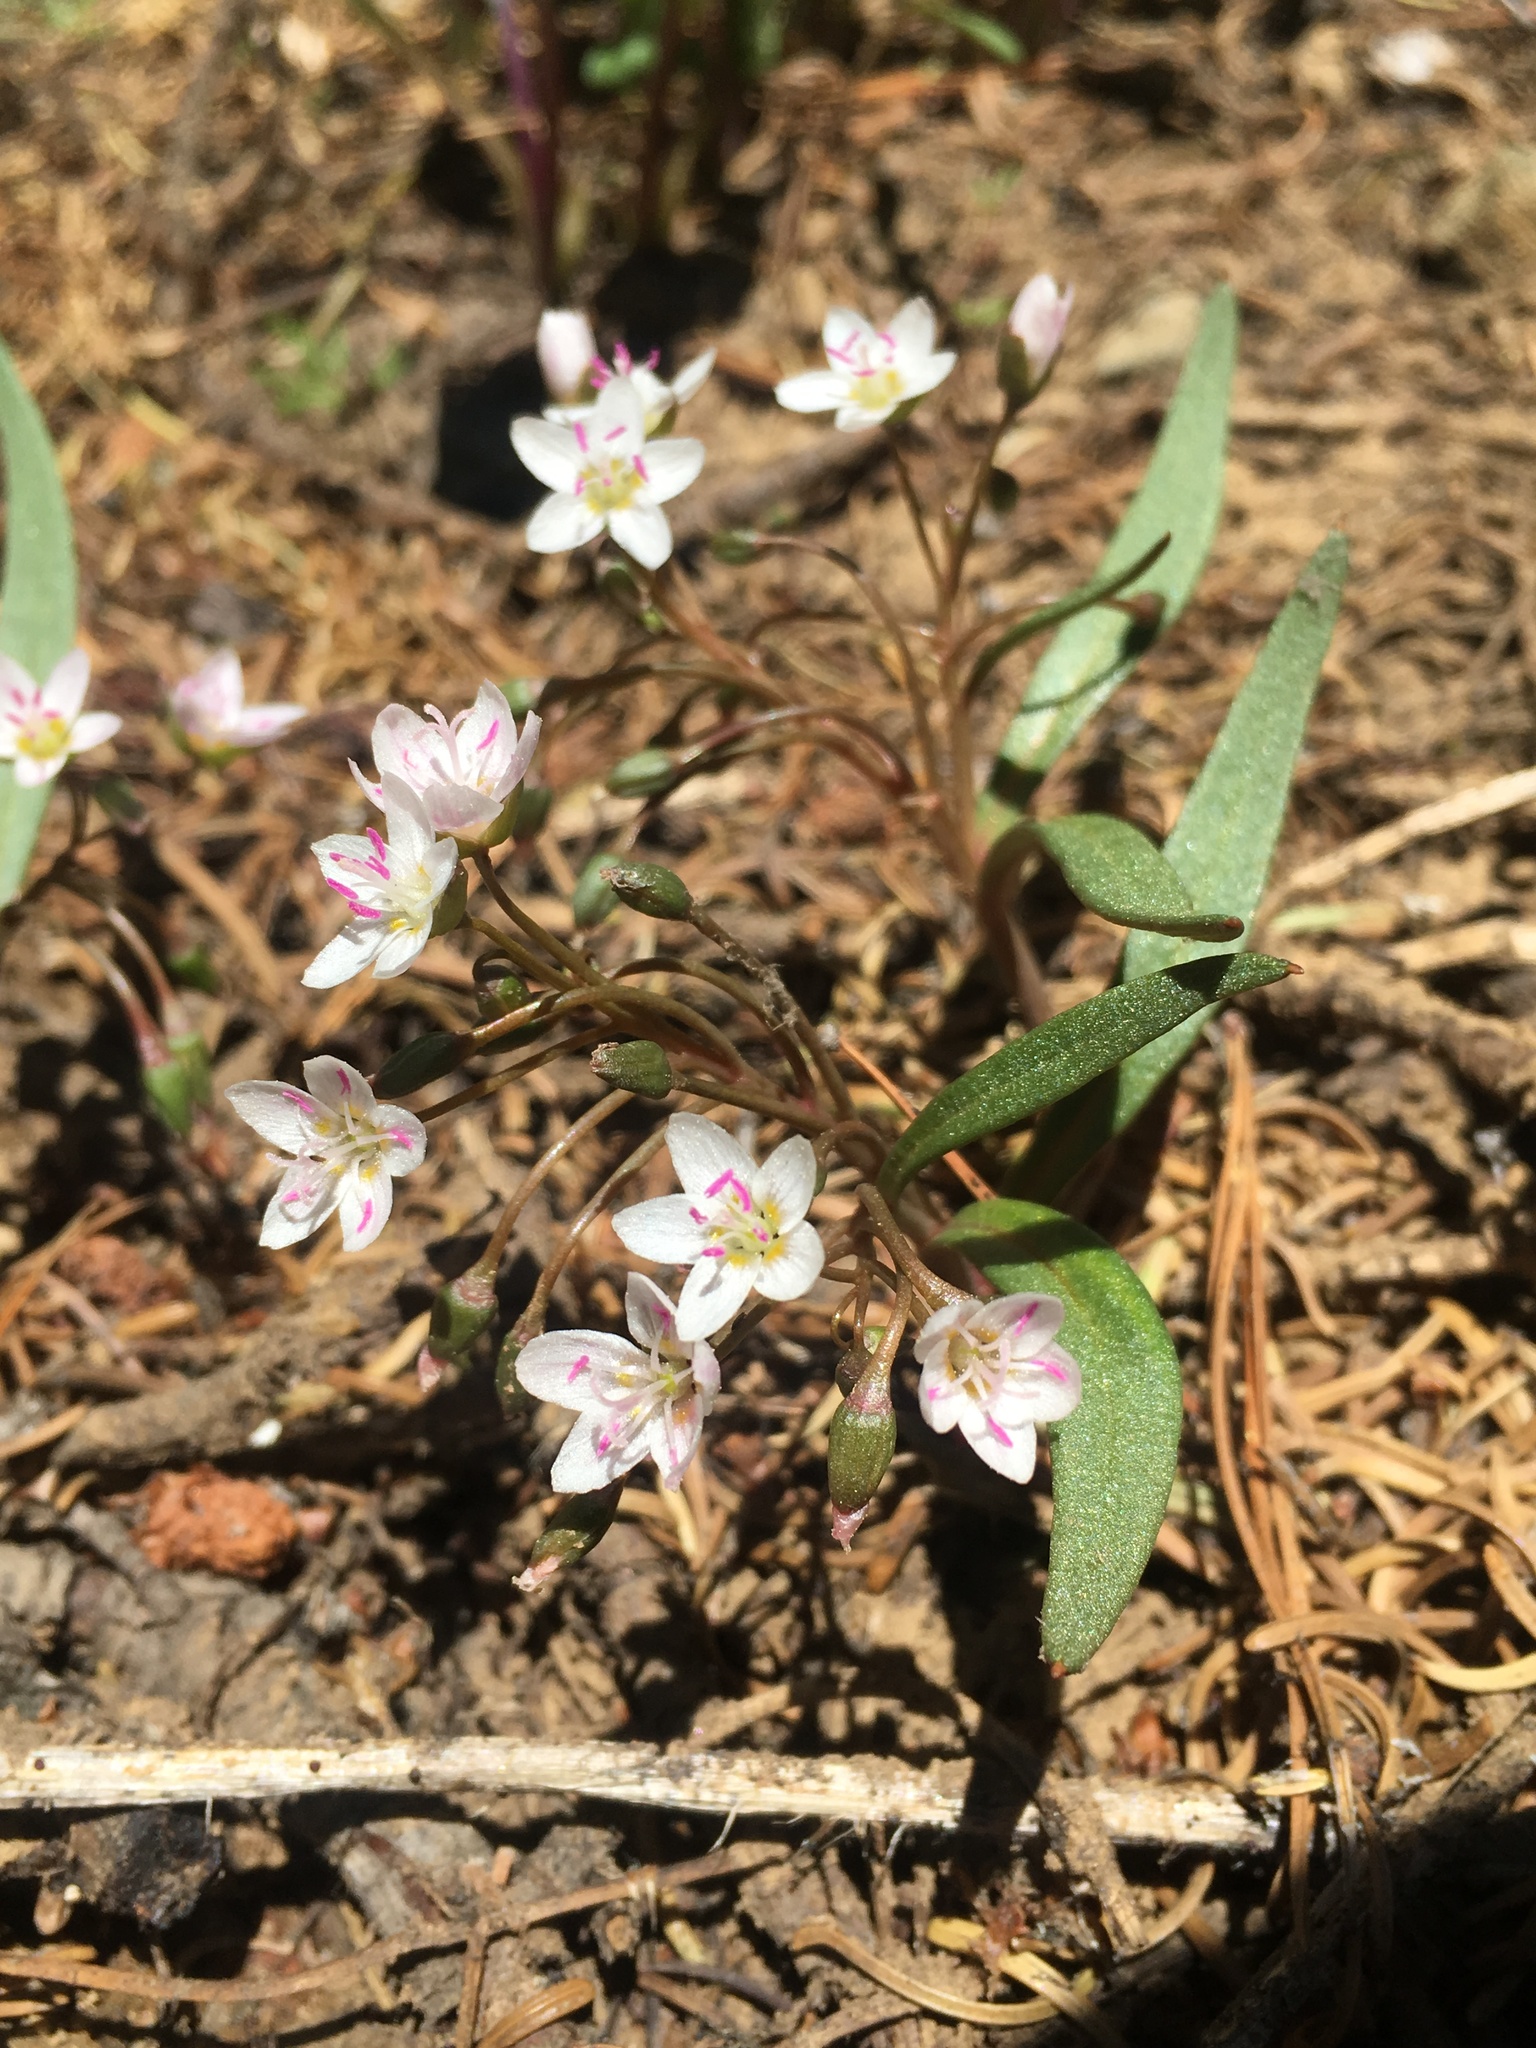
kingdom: Plantae
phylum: Tracheophyta
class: Magnoliopsida
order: Caryophyllales
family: Montiaceae
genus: Claytonia
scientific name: Claytonia serpenticola
